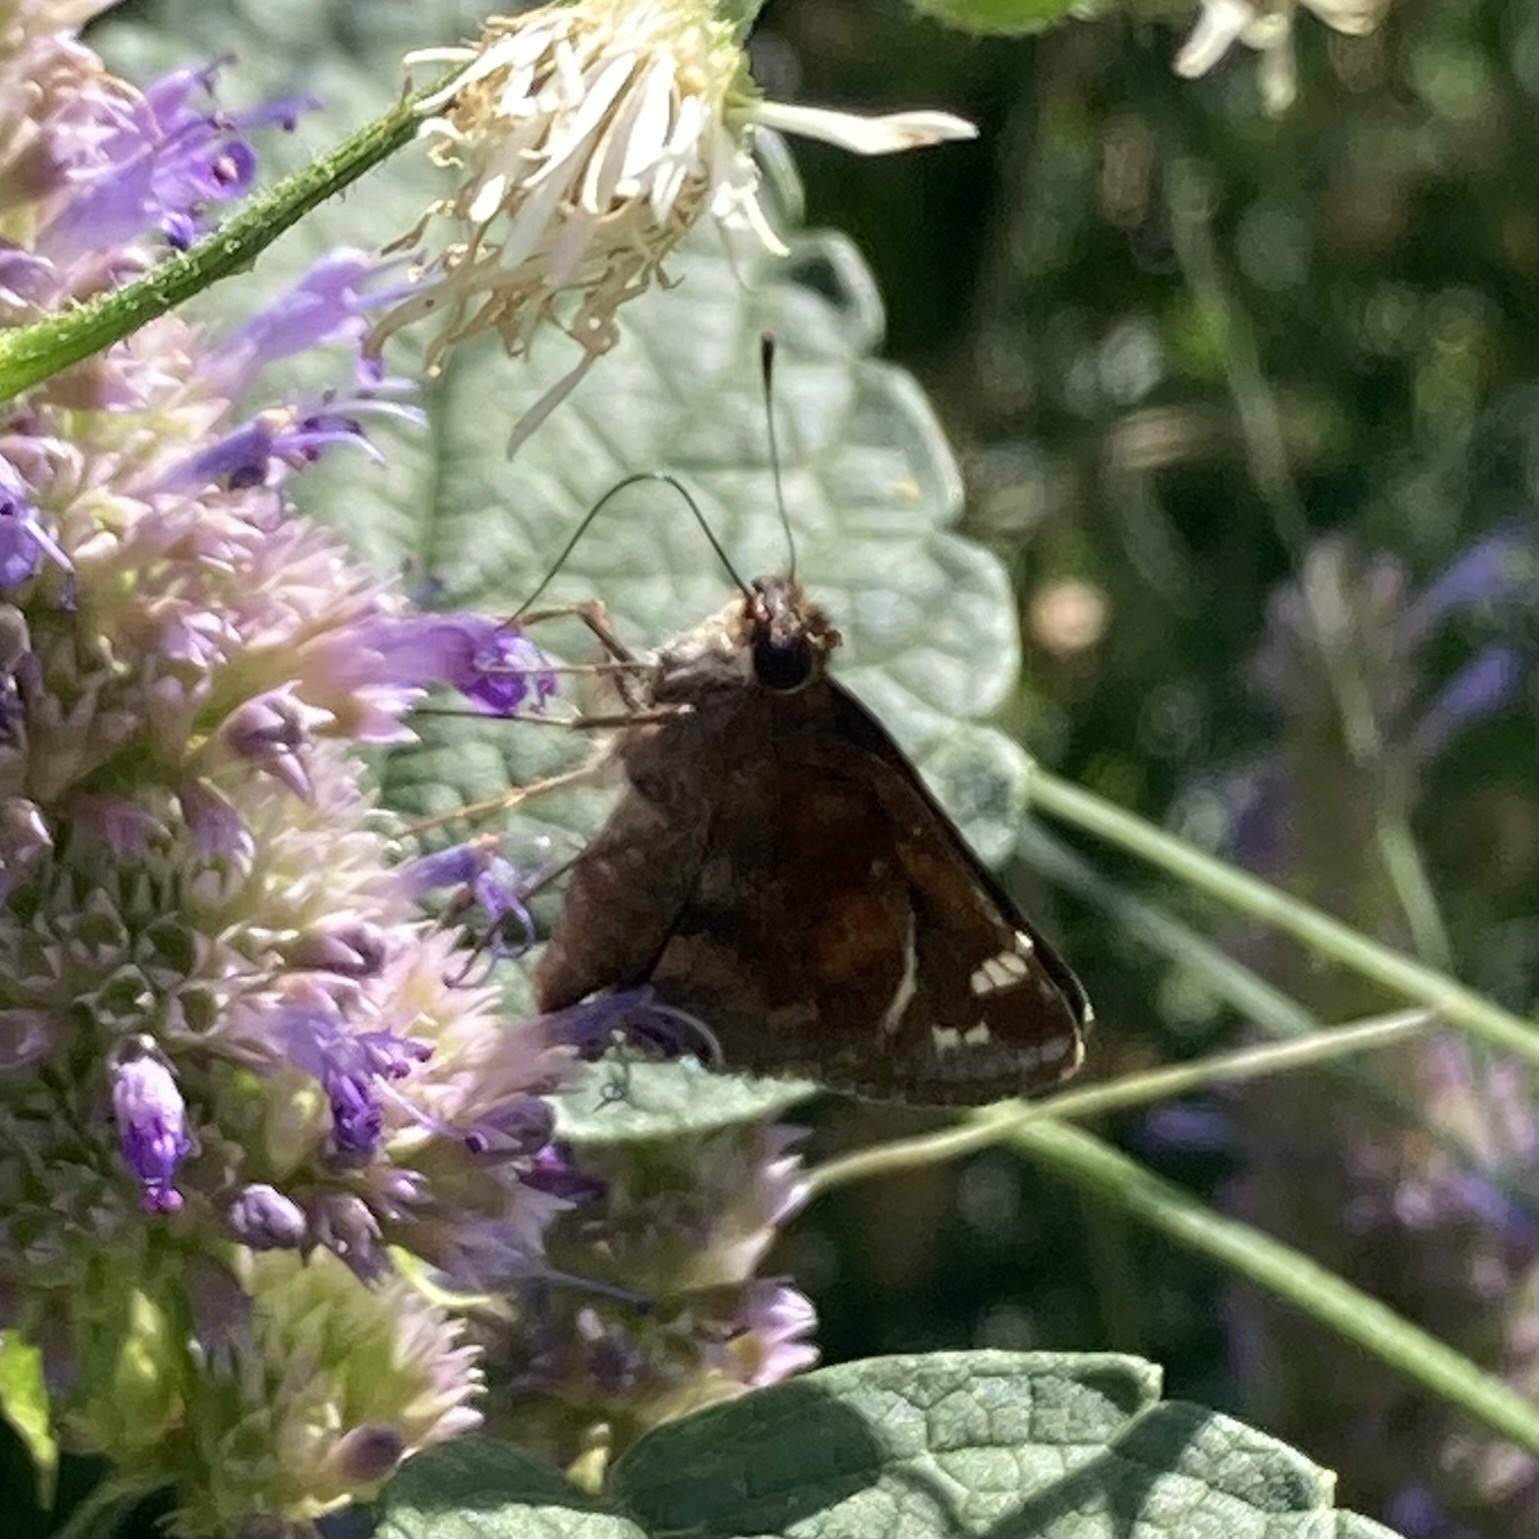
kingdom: Animalia
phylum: Arthropoda
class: Insecta
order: Lepidoptera
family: Hesperiidae
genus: Lon
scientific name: Lon zabulon
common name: Zabulon skipper
